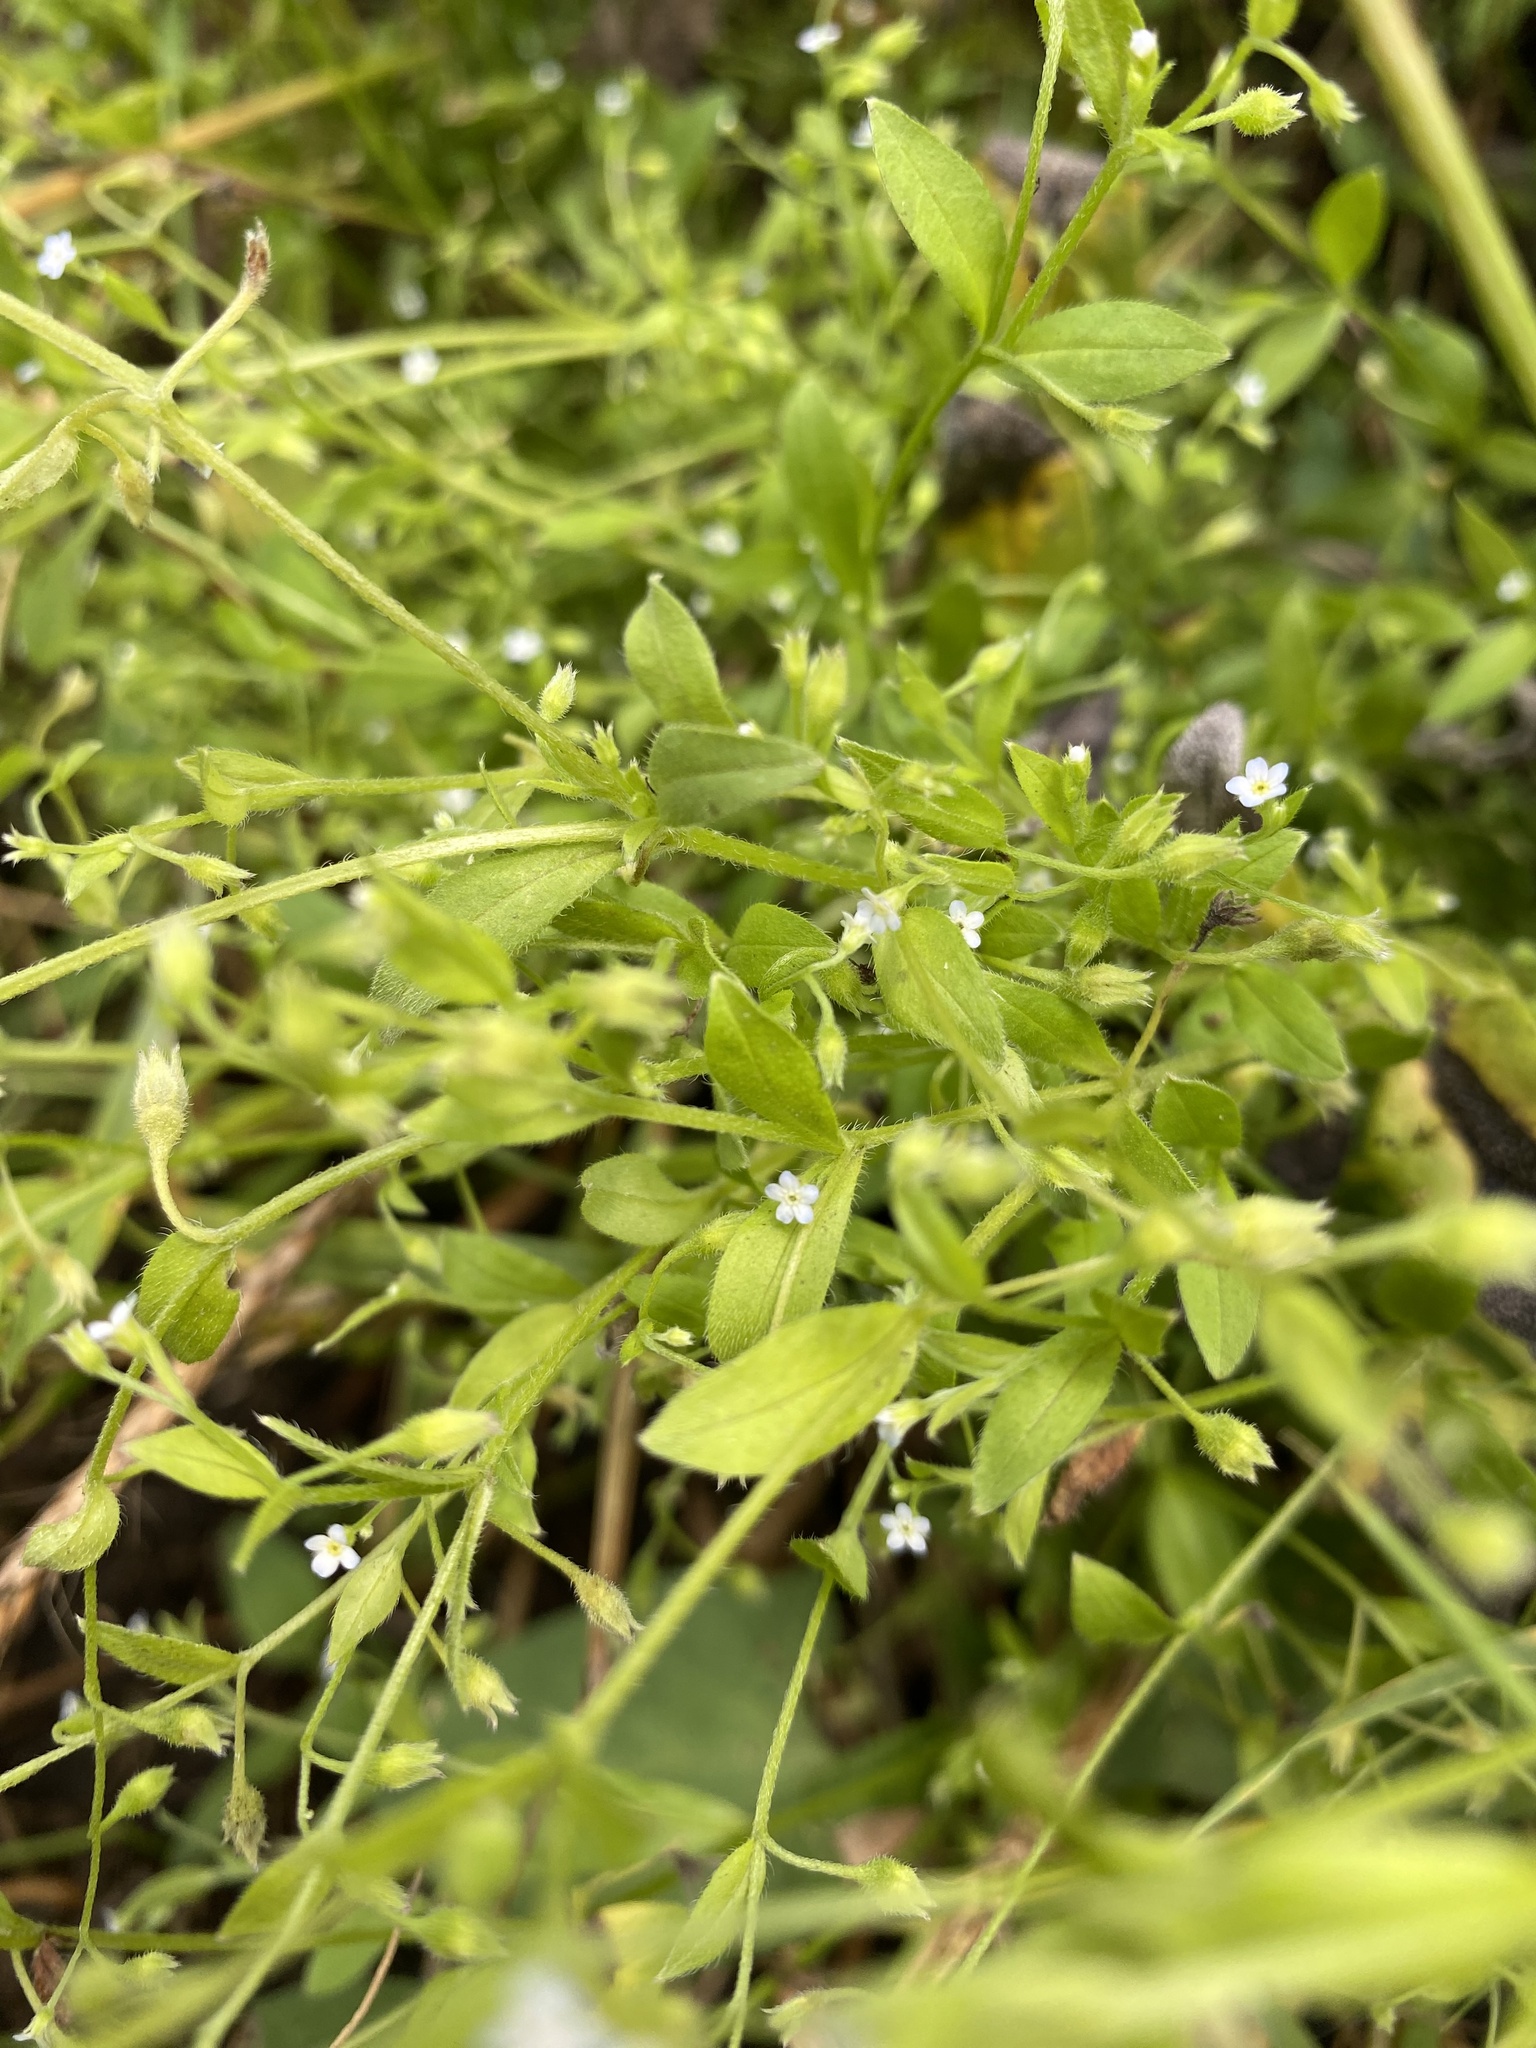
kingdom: Plantae
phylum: Tracheophyta
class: Magnoliopsida
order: Boraginales
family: Boraginaceae
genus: Myosotis
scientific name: Myosotis sparsiflora
